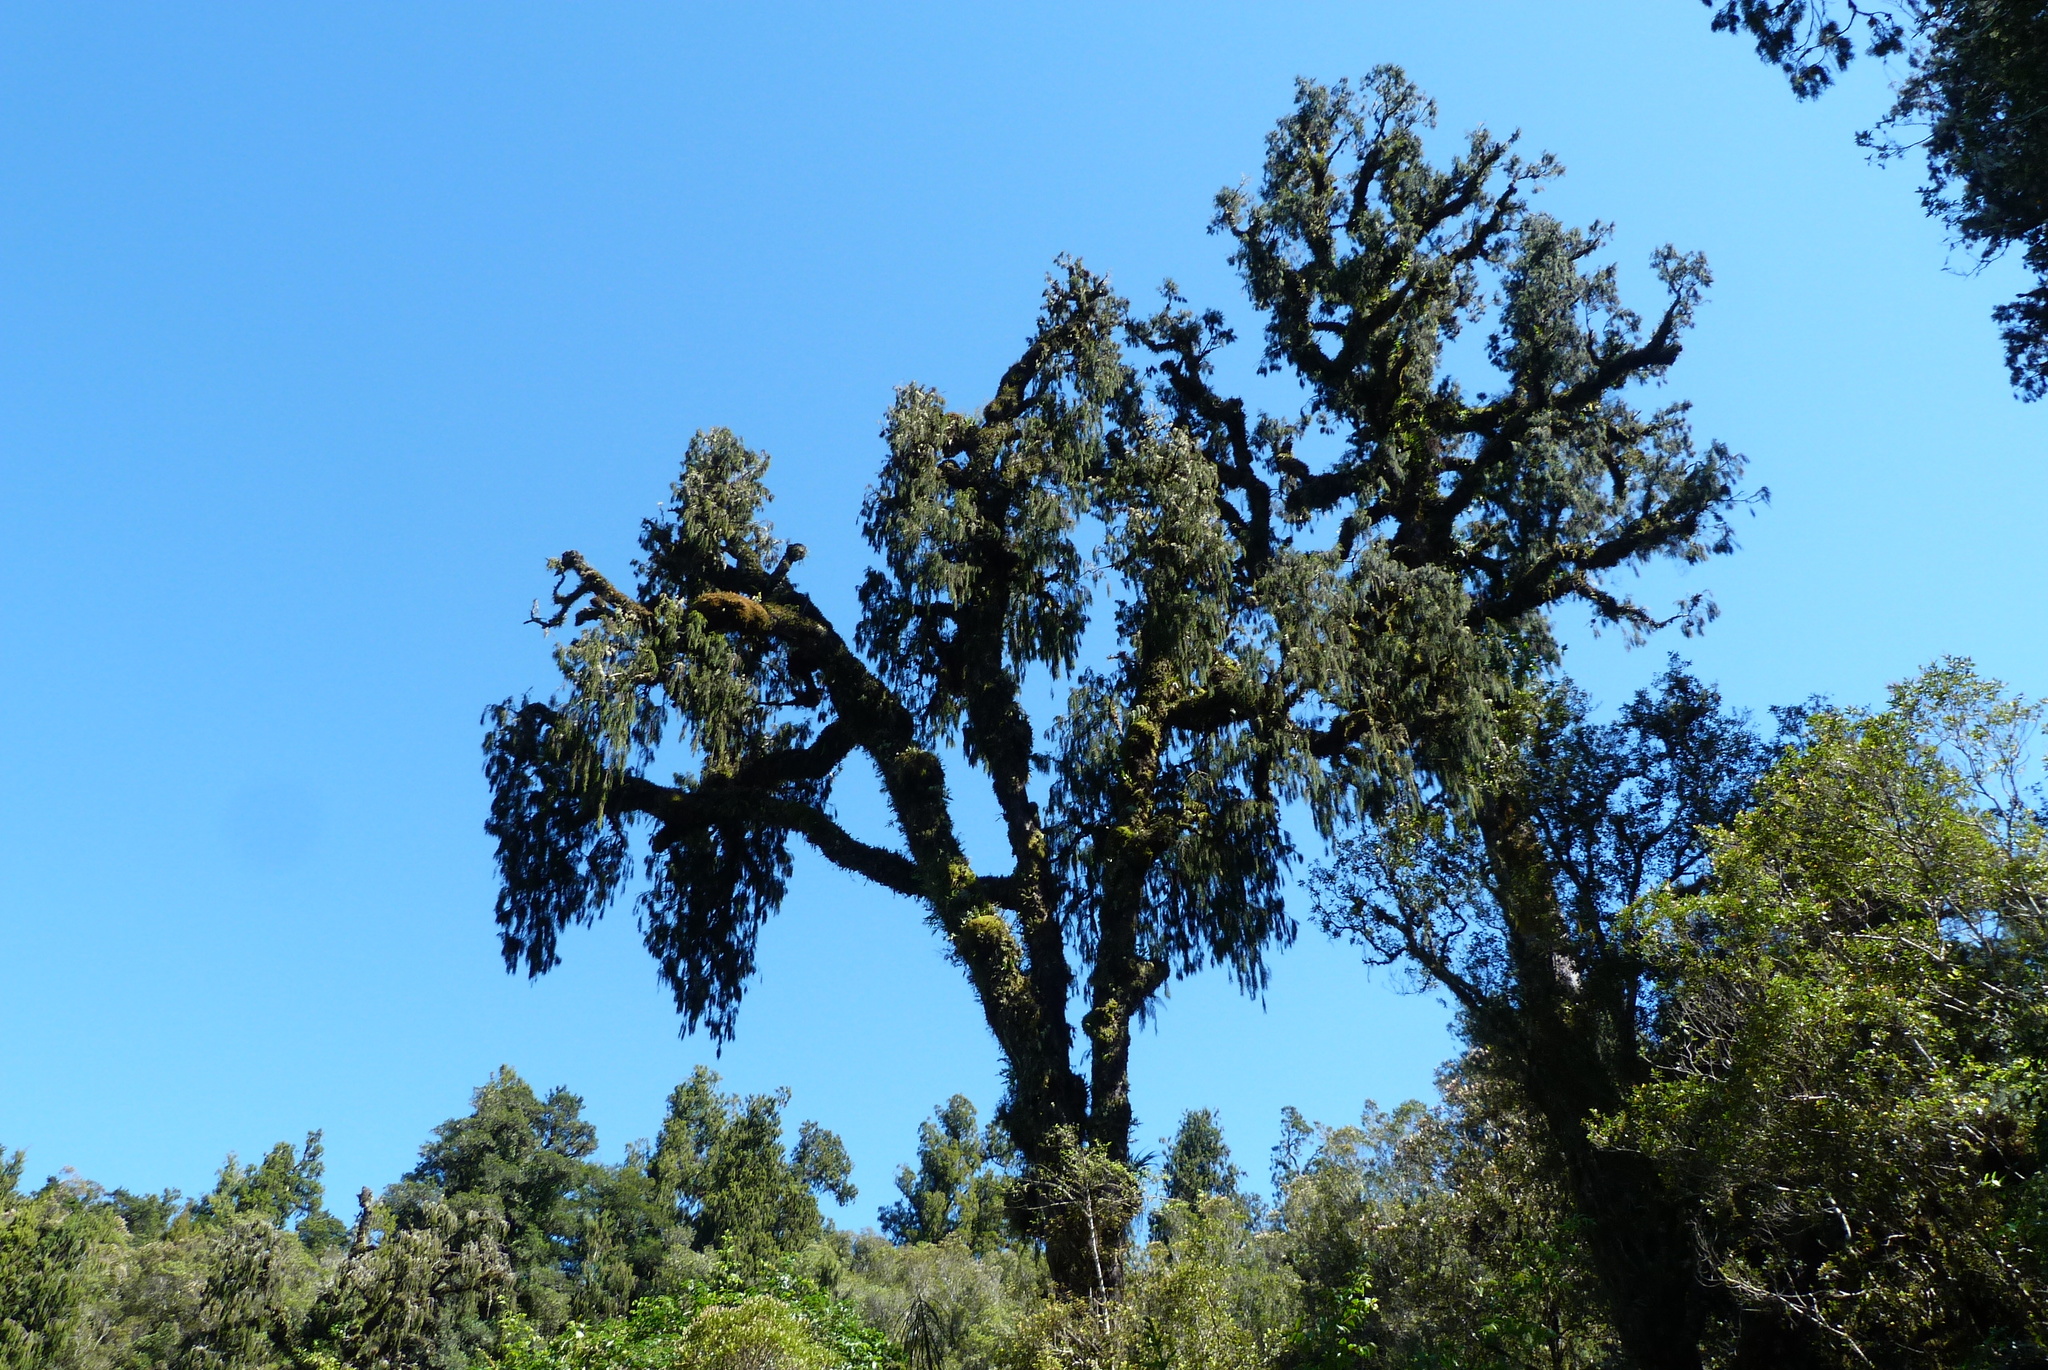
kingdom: Plantae
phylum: Tracheophyta
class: Pinopsida
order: Pinales
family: Podocarpaceae
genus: Dacrydium
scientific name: Dacrydium cupressinum
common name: Red pine
